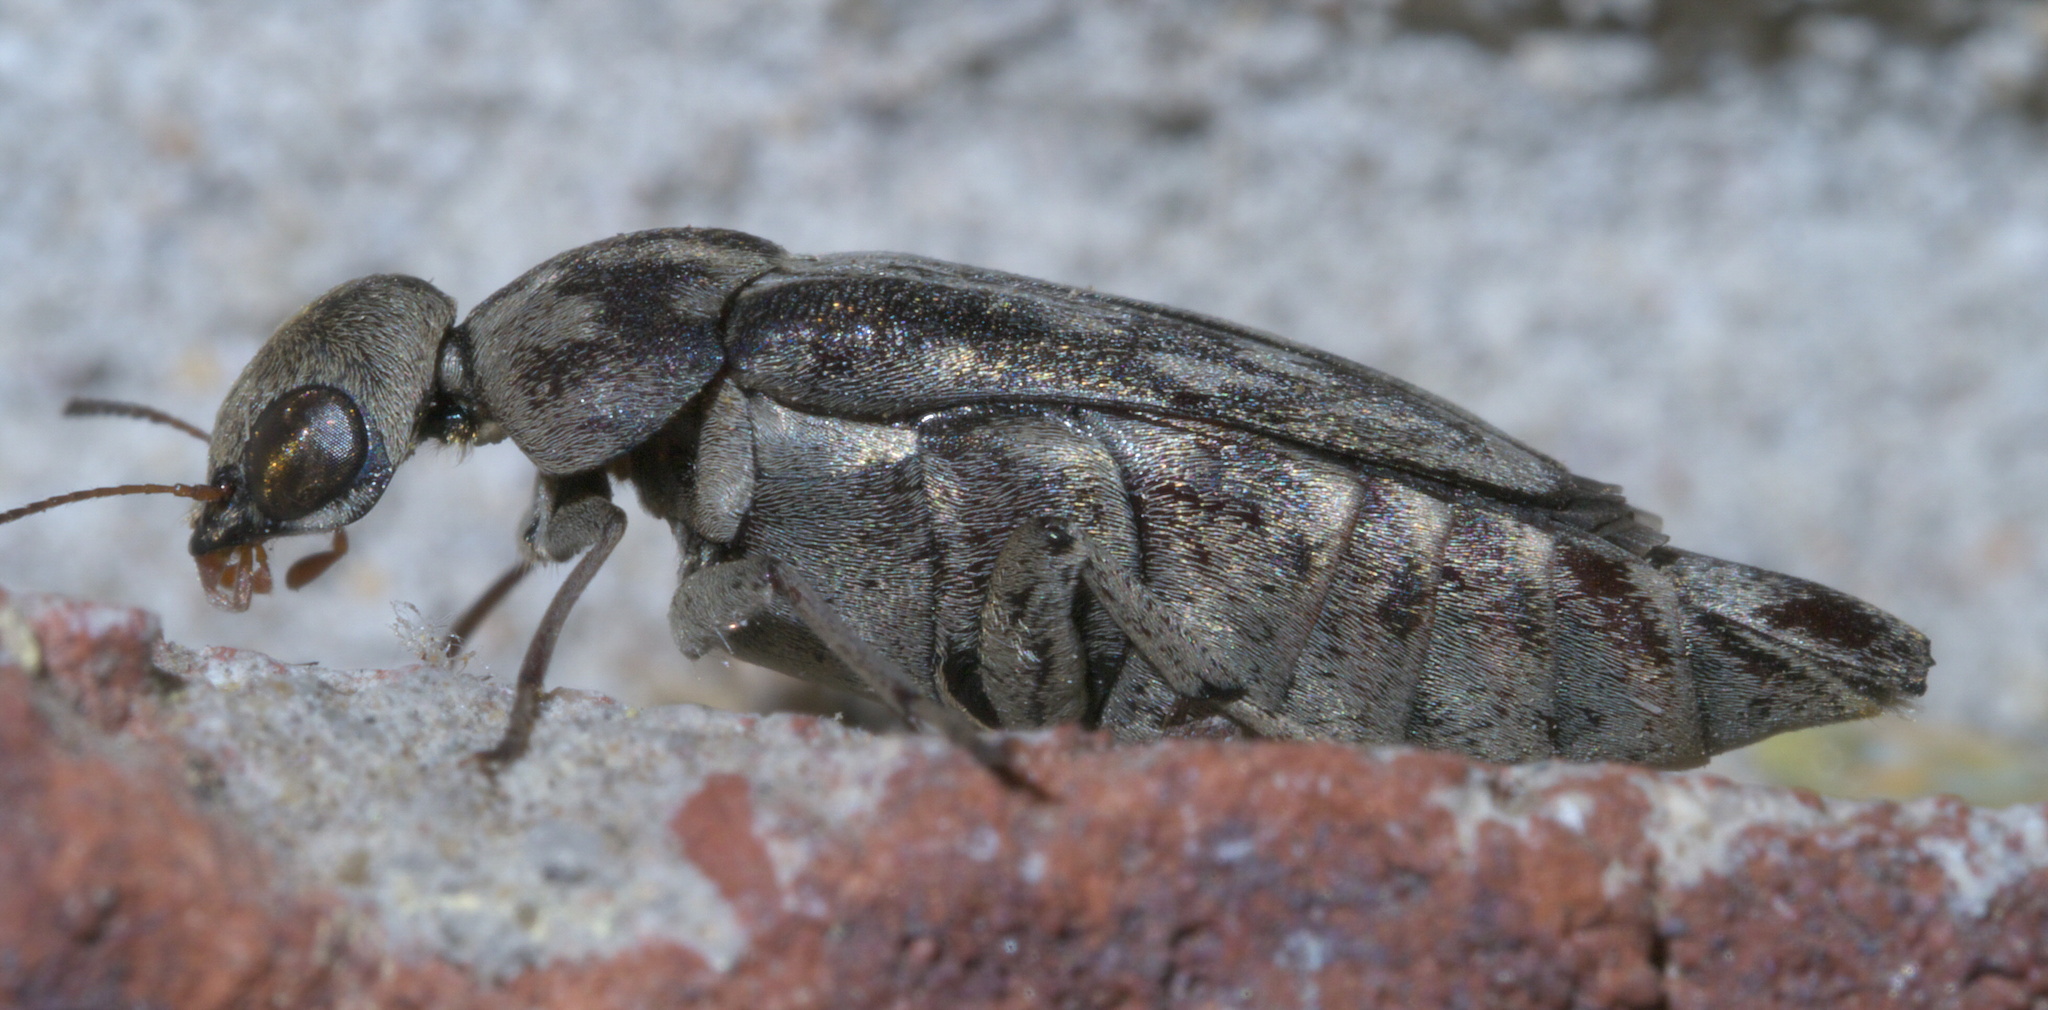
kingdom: Animalia
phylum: Arthropoda
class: Insecta
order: Coleoptera
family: Mordellidae
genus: Yakuhananomia
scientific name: Yakuhananomia bidentata
